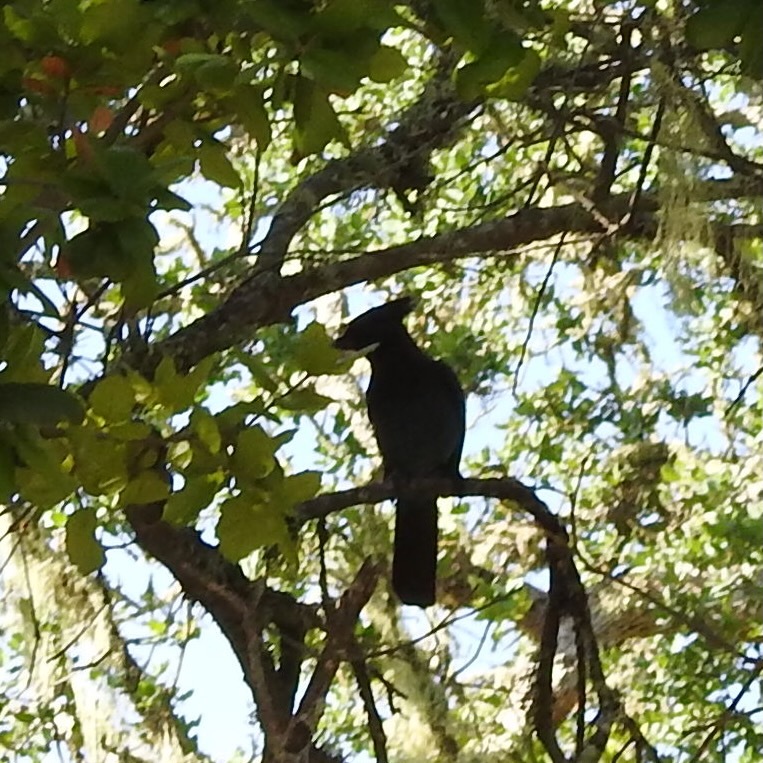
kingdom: Animalia
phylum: Chordata
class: Aves
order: Passeriformes
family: Corvidae
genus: Cyanocitta
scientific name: Cyanocitta stelleri
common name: Steller's jay
